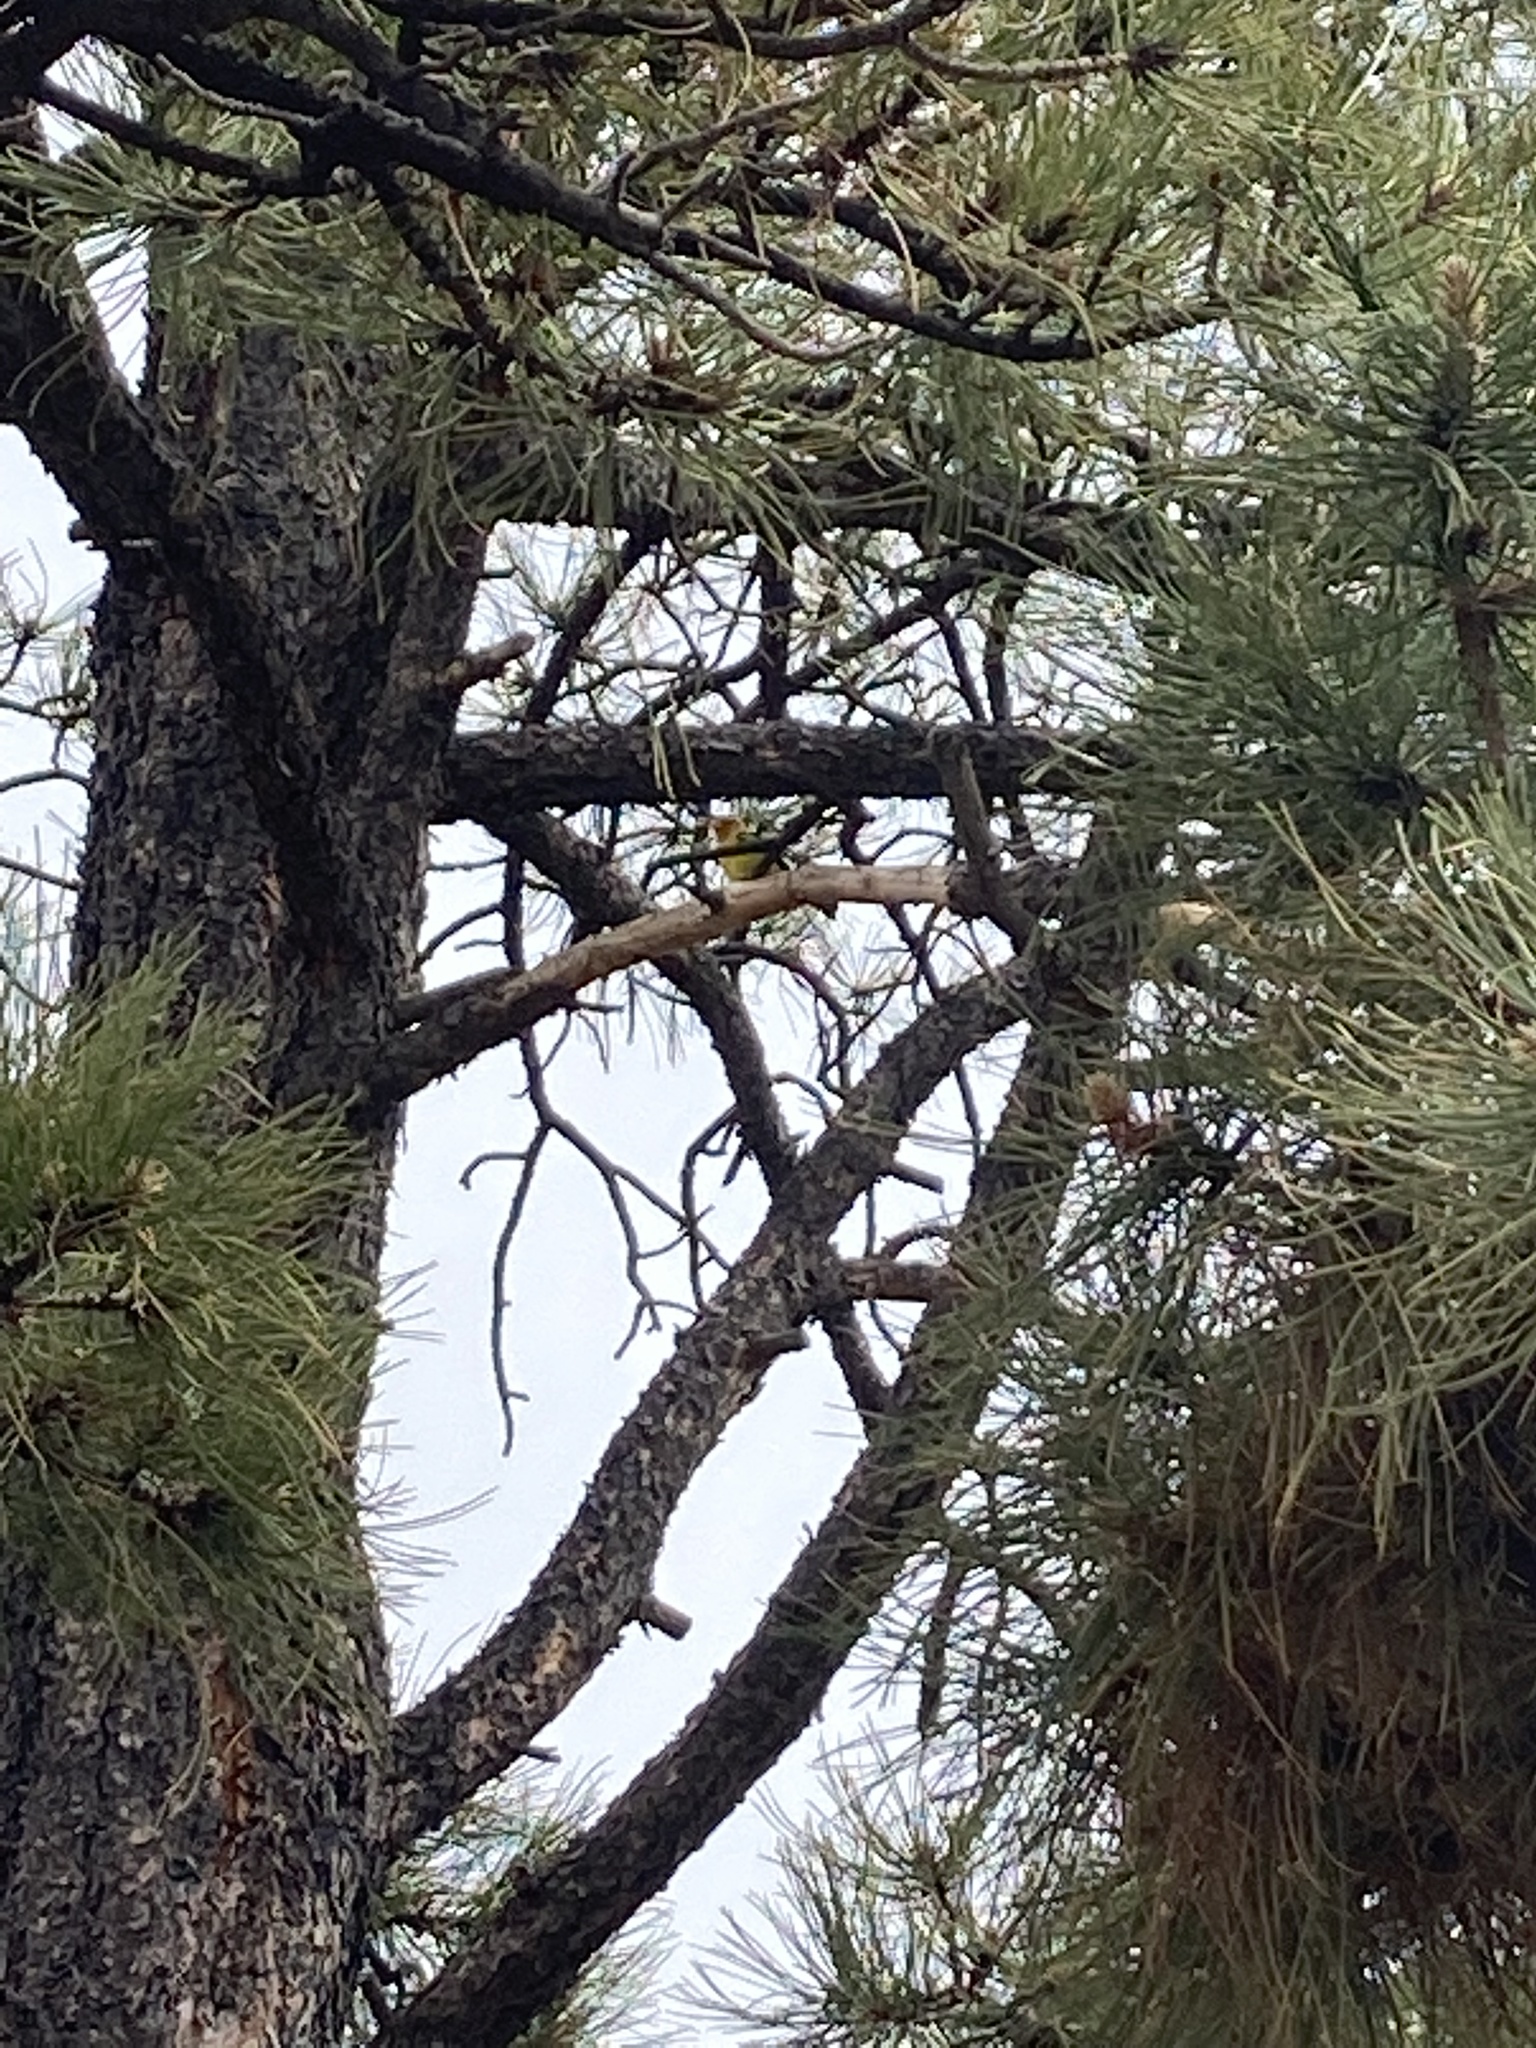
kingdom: Animalia
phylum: Chordata
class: Aves
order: Passeriformes
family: Cardinalidae
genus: Piranga
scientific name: Piranga ludoviciana
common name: Western tanager
